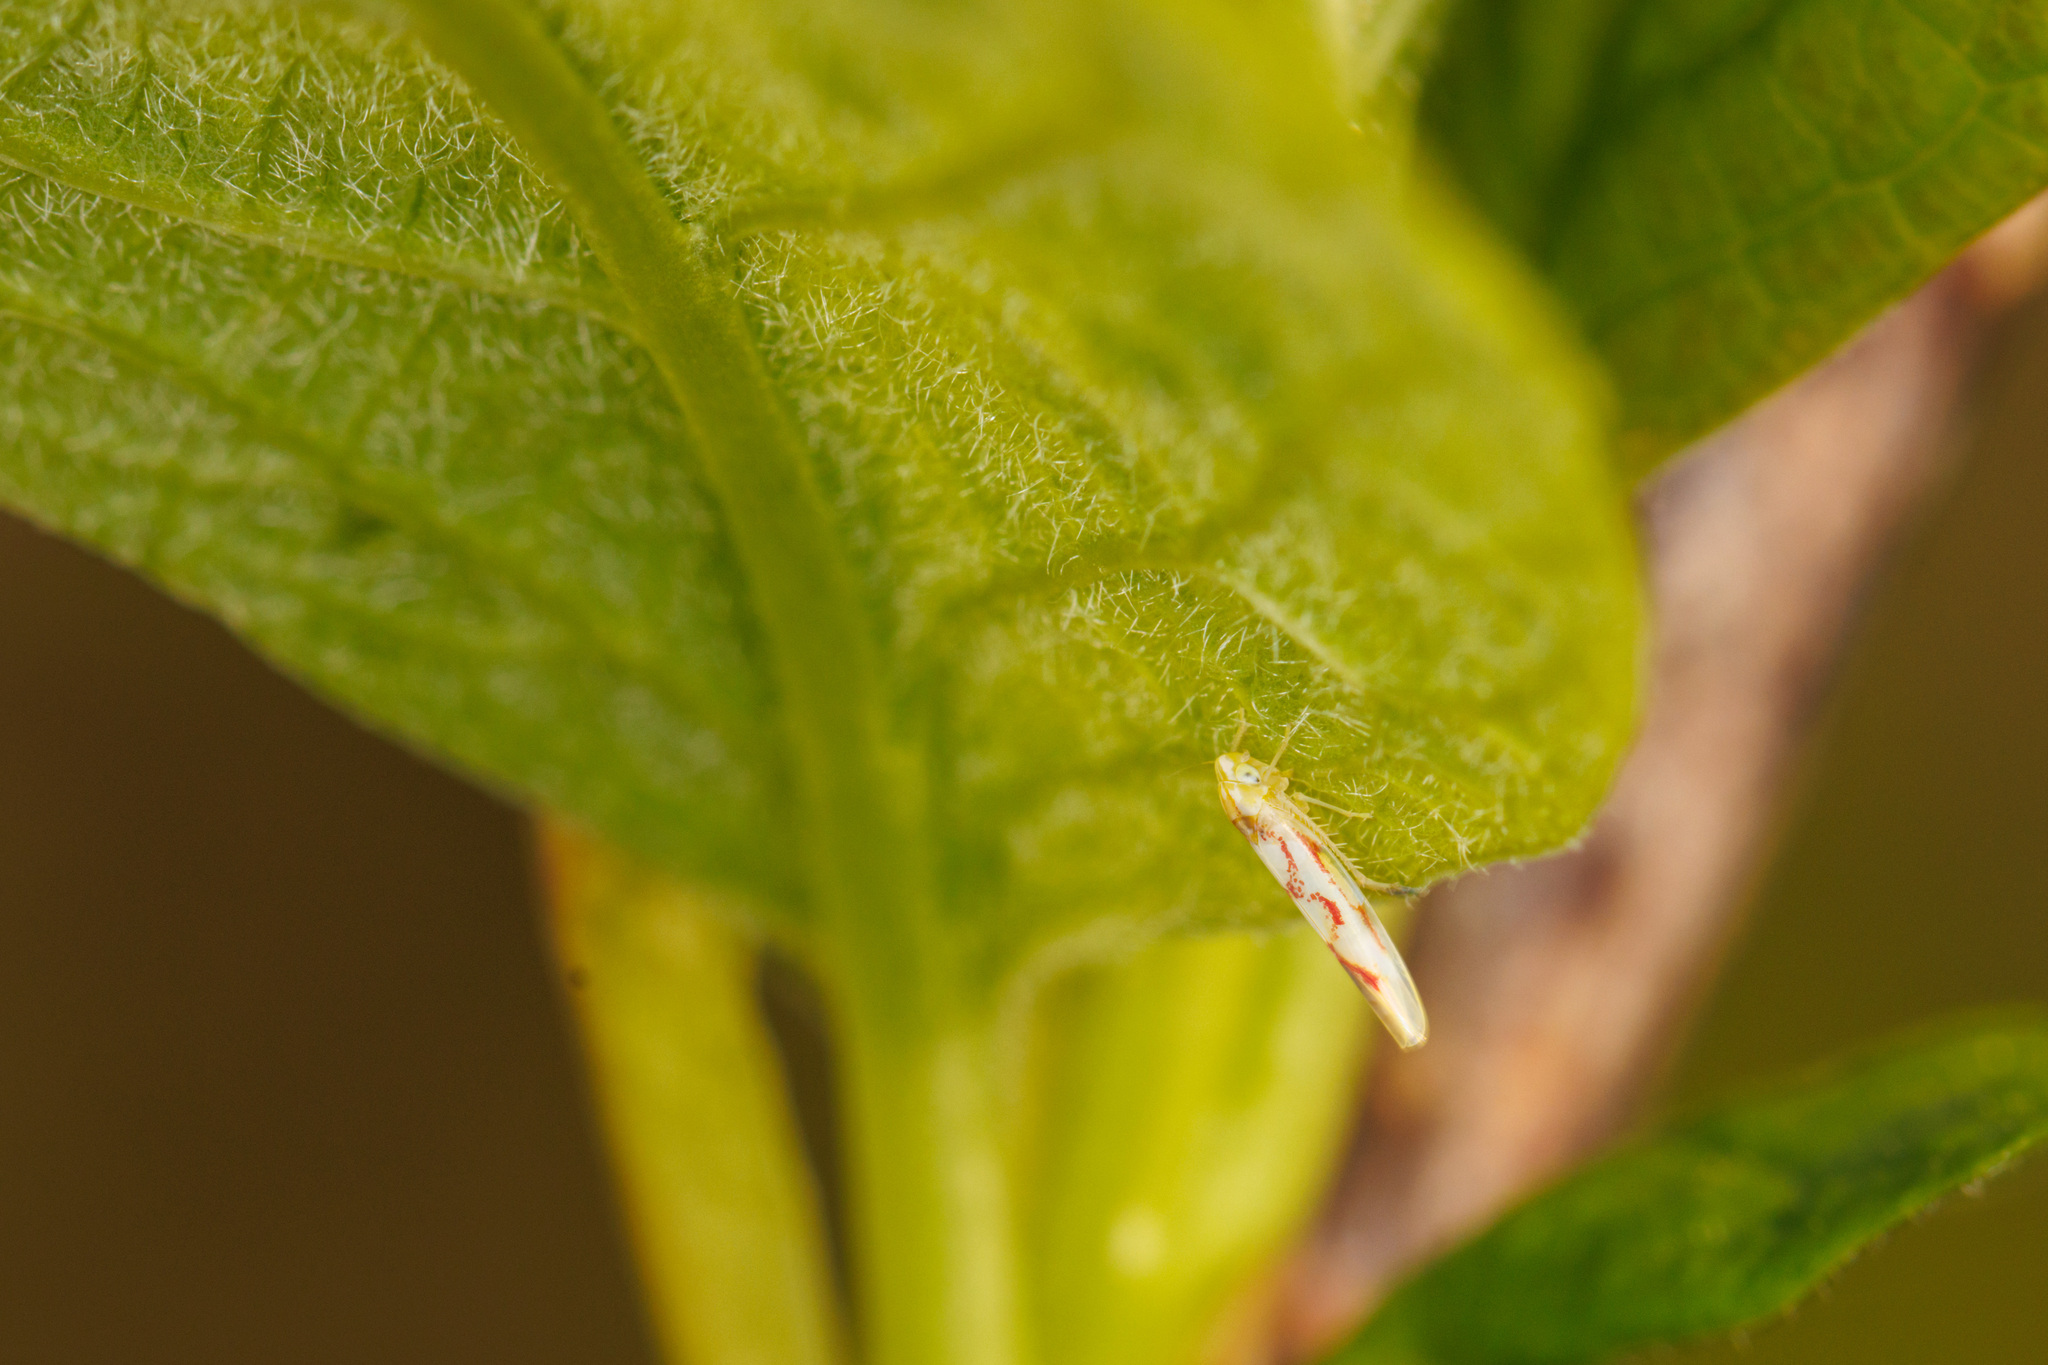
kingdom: Animalia
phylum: Arthropoda
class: Insecta
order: Hemiptera
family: Cicadellidae
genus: Zygina
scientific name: Zygina flammigera
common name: Leafhopper
